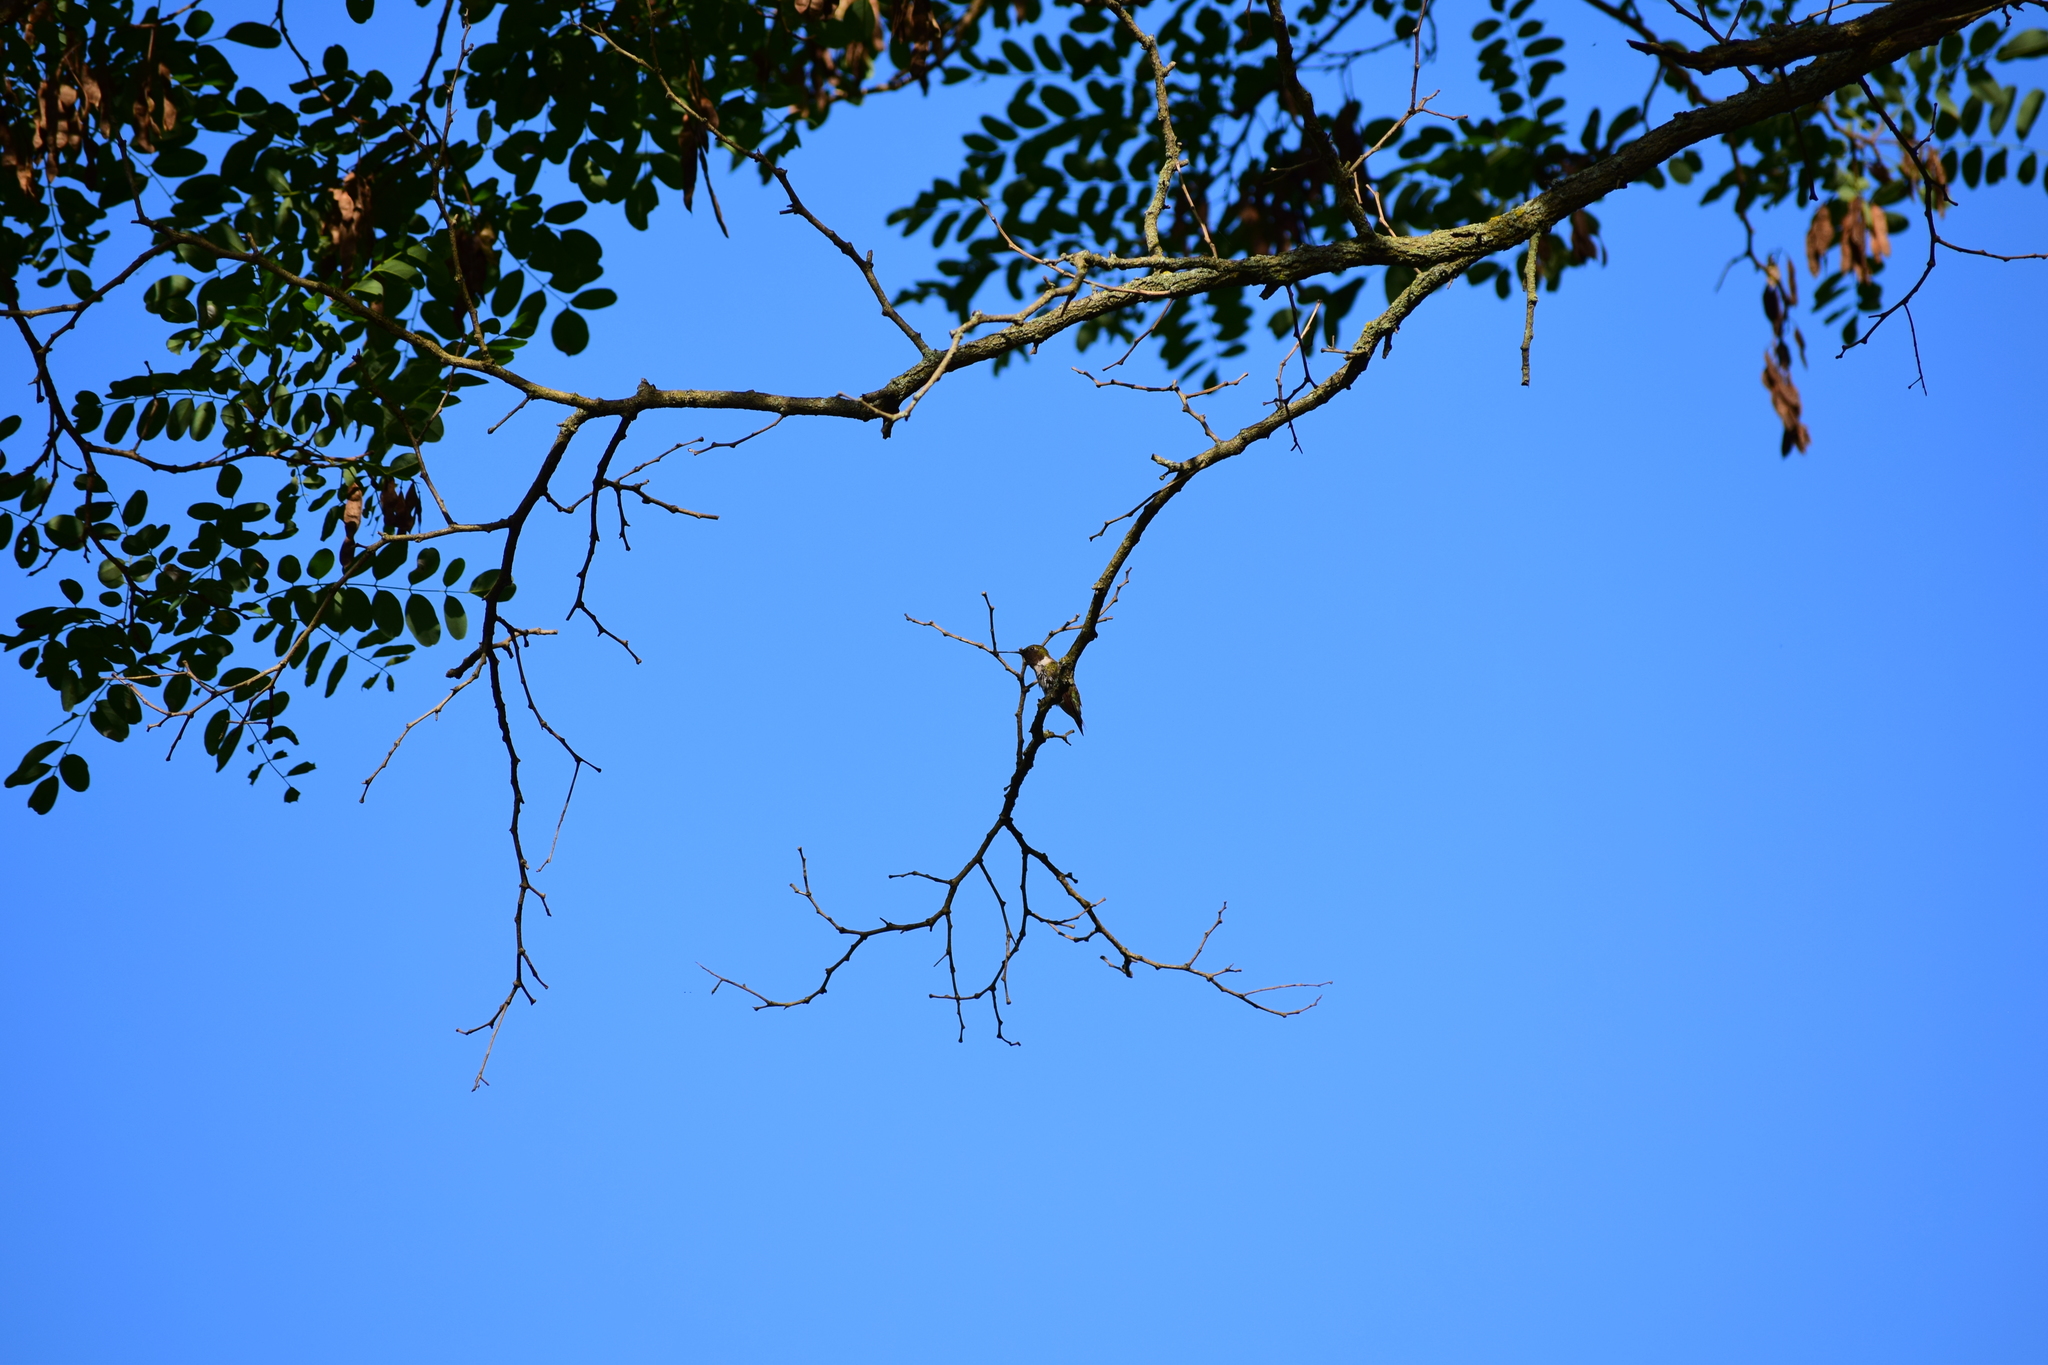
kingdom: Animalia
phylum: Chordata
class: Aves
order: Apodiformes
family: Trochilidae
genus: Archilochus
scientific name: Archilochus colubris
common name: Ruby-throated hummingbird
